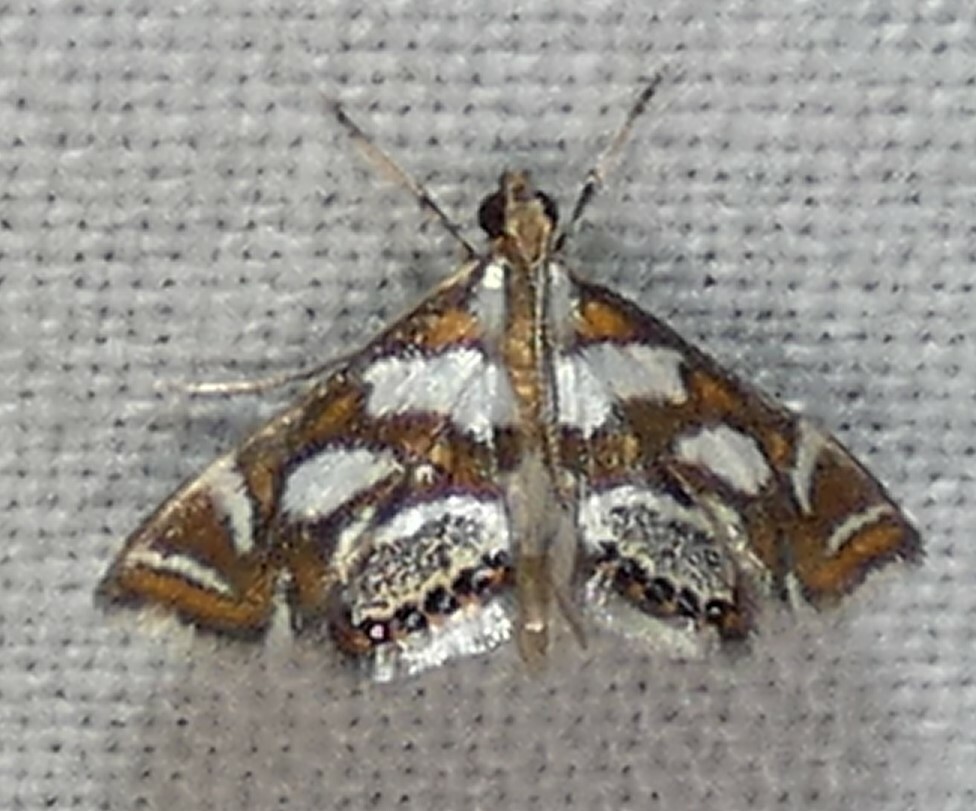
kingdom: Animalia
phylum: Arthropoda
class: Insecta
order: Lepidoptera
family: Crambidae
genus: Chrysendeton
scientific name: Chrysendeton medicinalis
